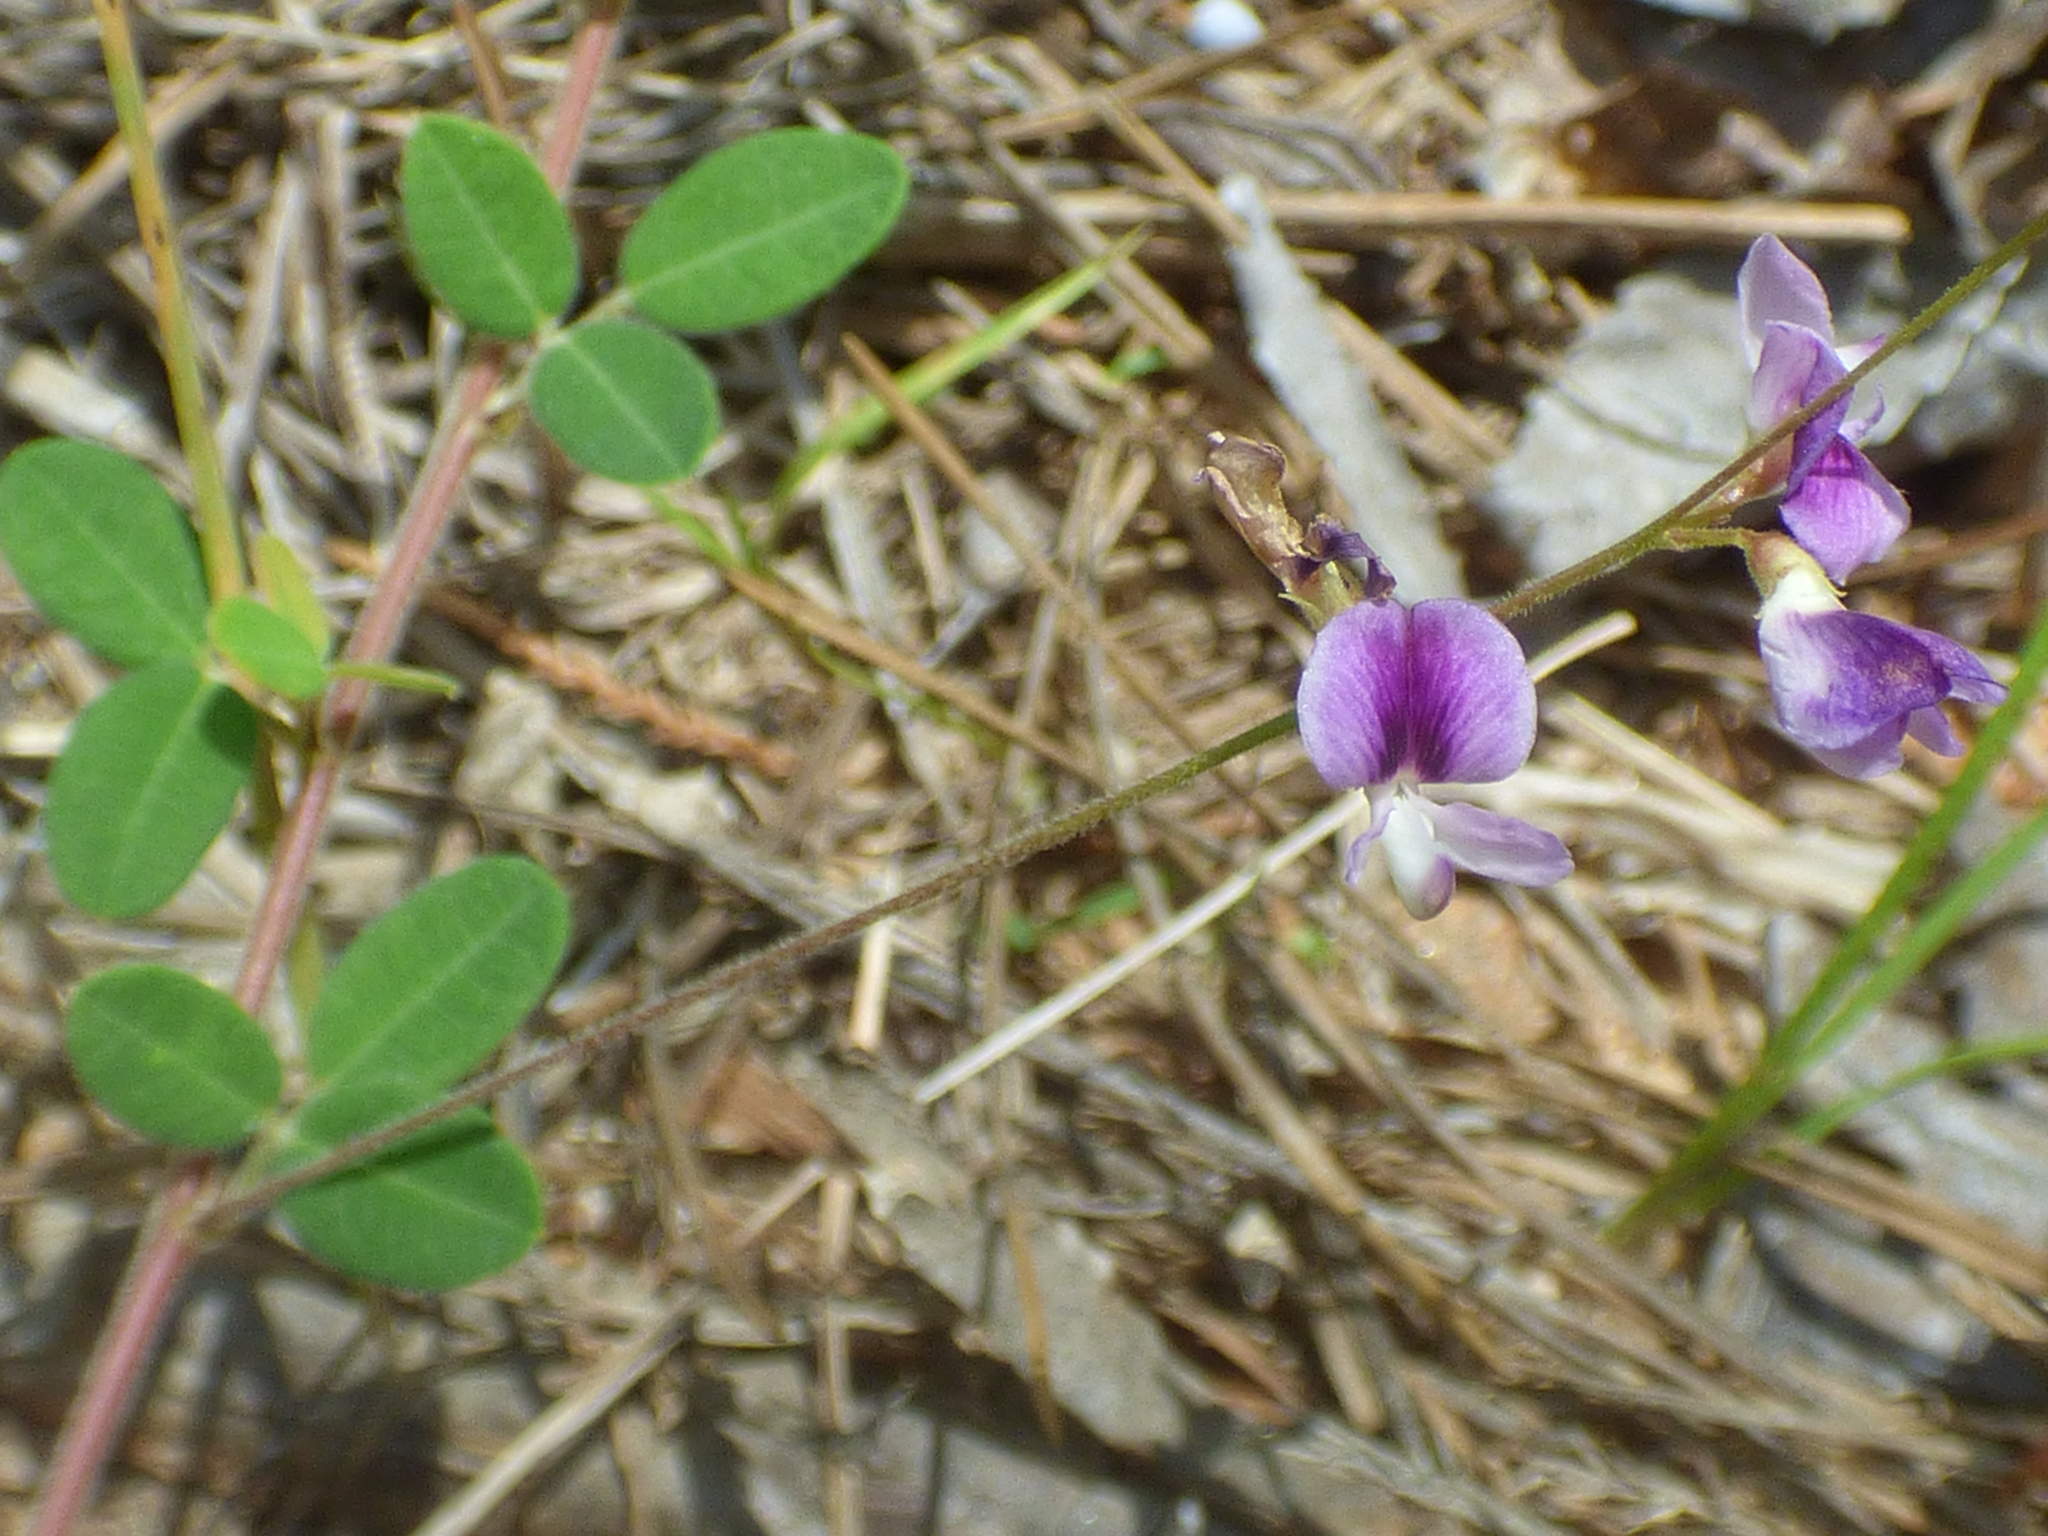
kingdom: Plantae
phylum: Tracheophyta
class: Magnoliopsida
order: Fabales
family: Fabaceae
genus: Lespedeza
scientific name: Lespedeza procumbens
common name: Downy trailing bush-clover
